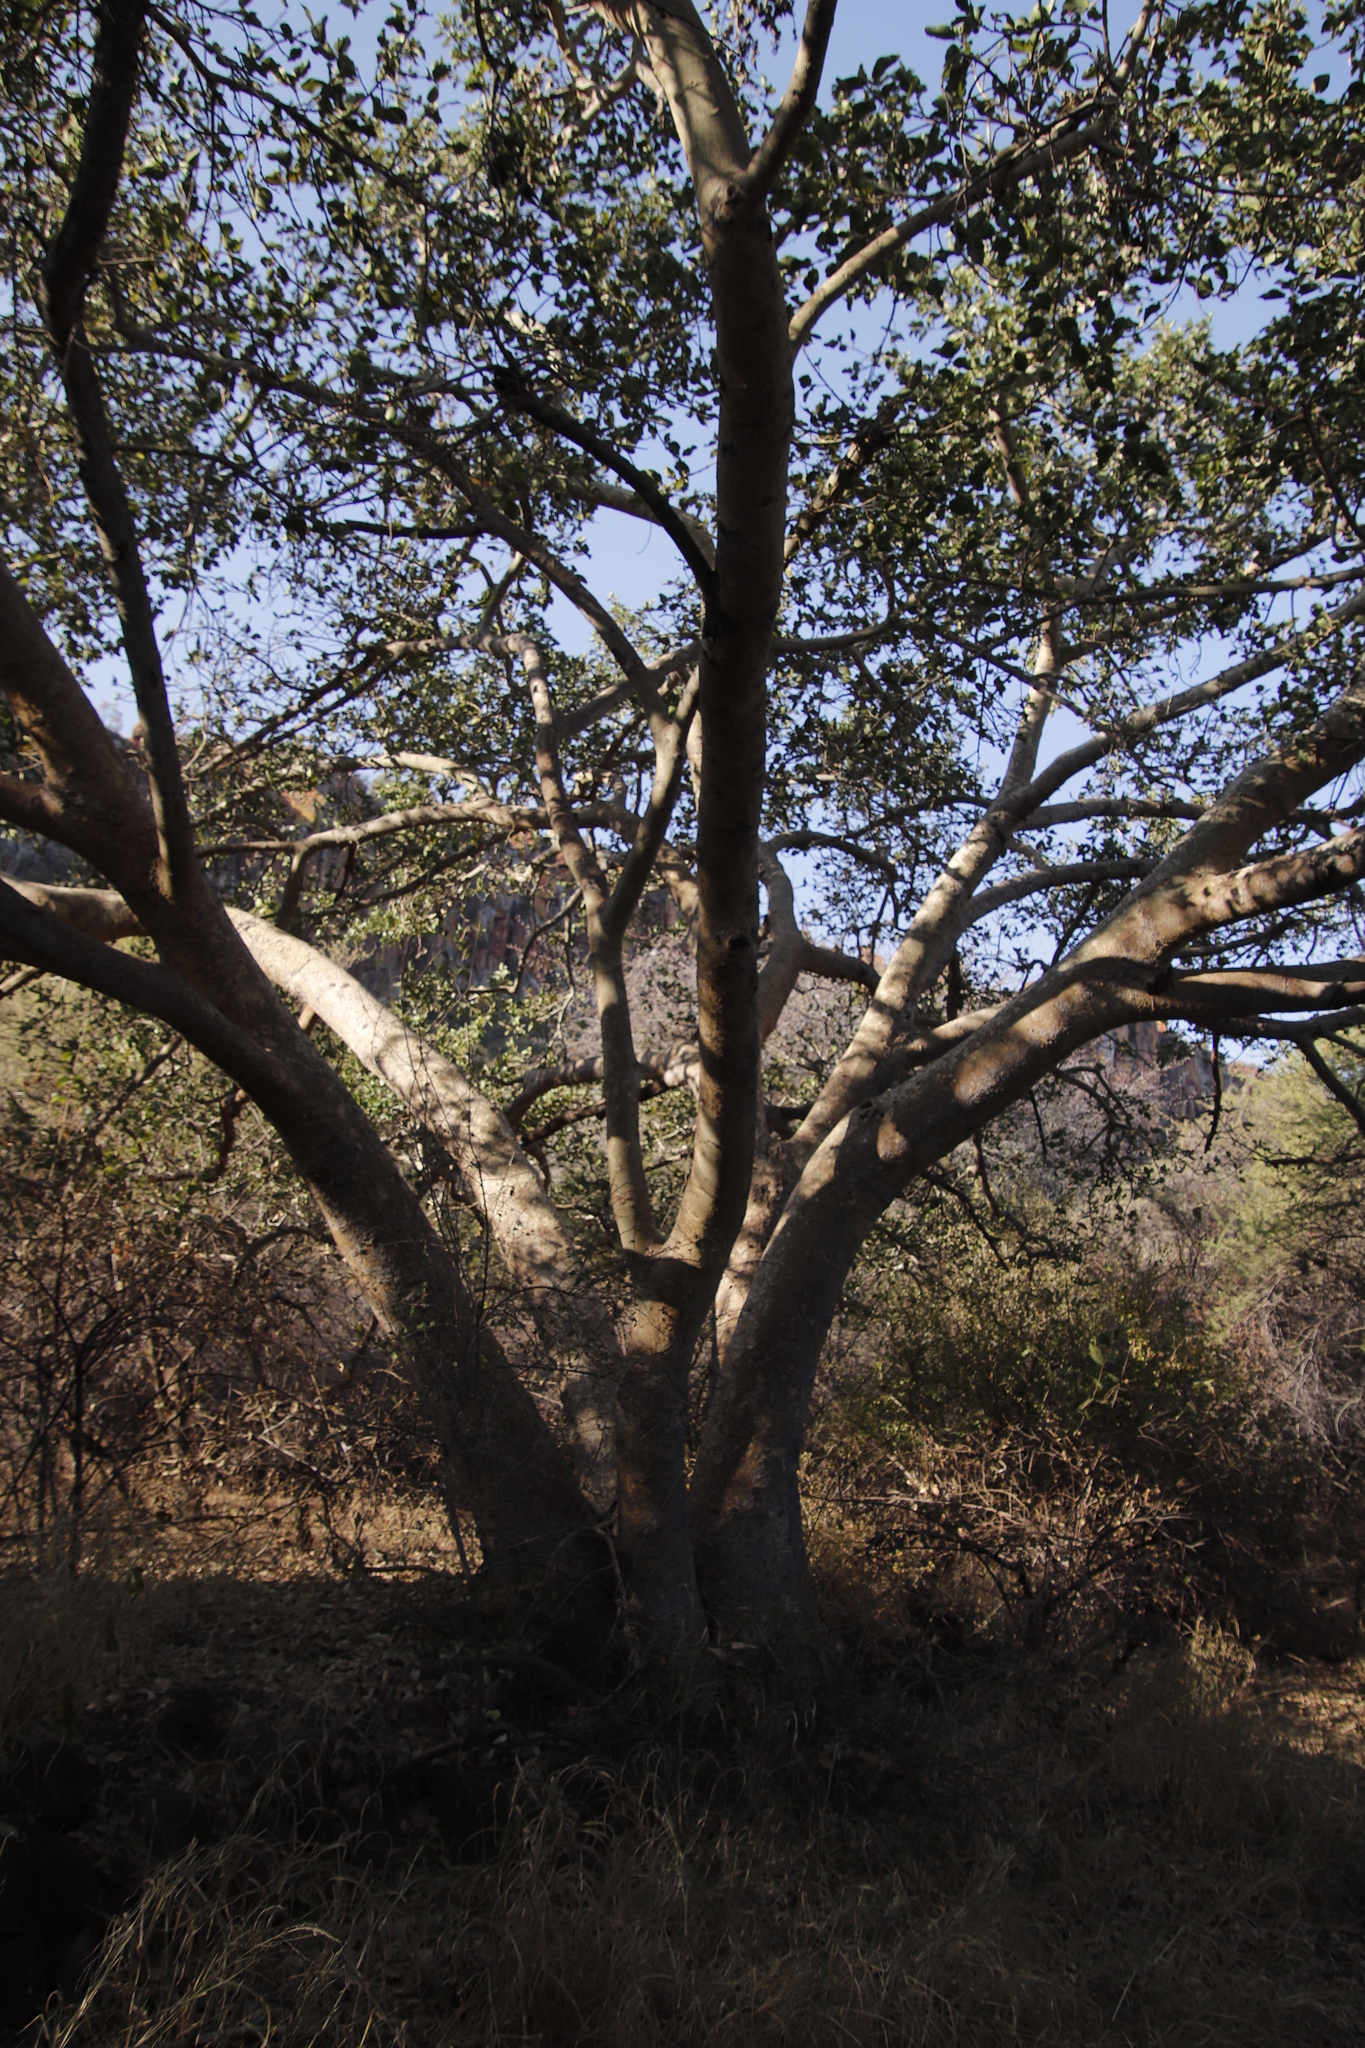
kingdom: Plantae
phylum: Tracheophyta
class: Magnoliopsida
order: Rosales
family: Moraceae
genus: Ficus
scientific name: Ficus sycomorus
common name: Sycomore
